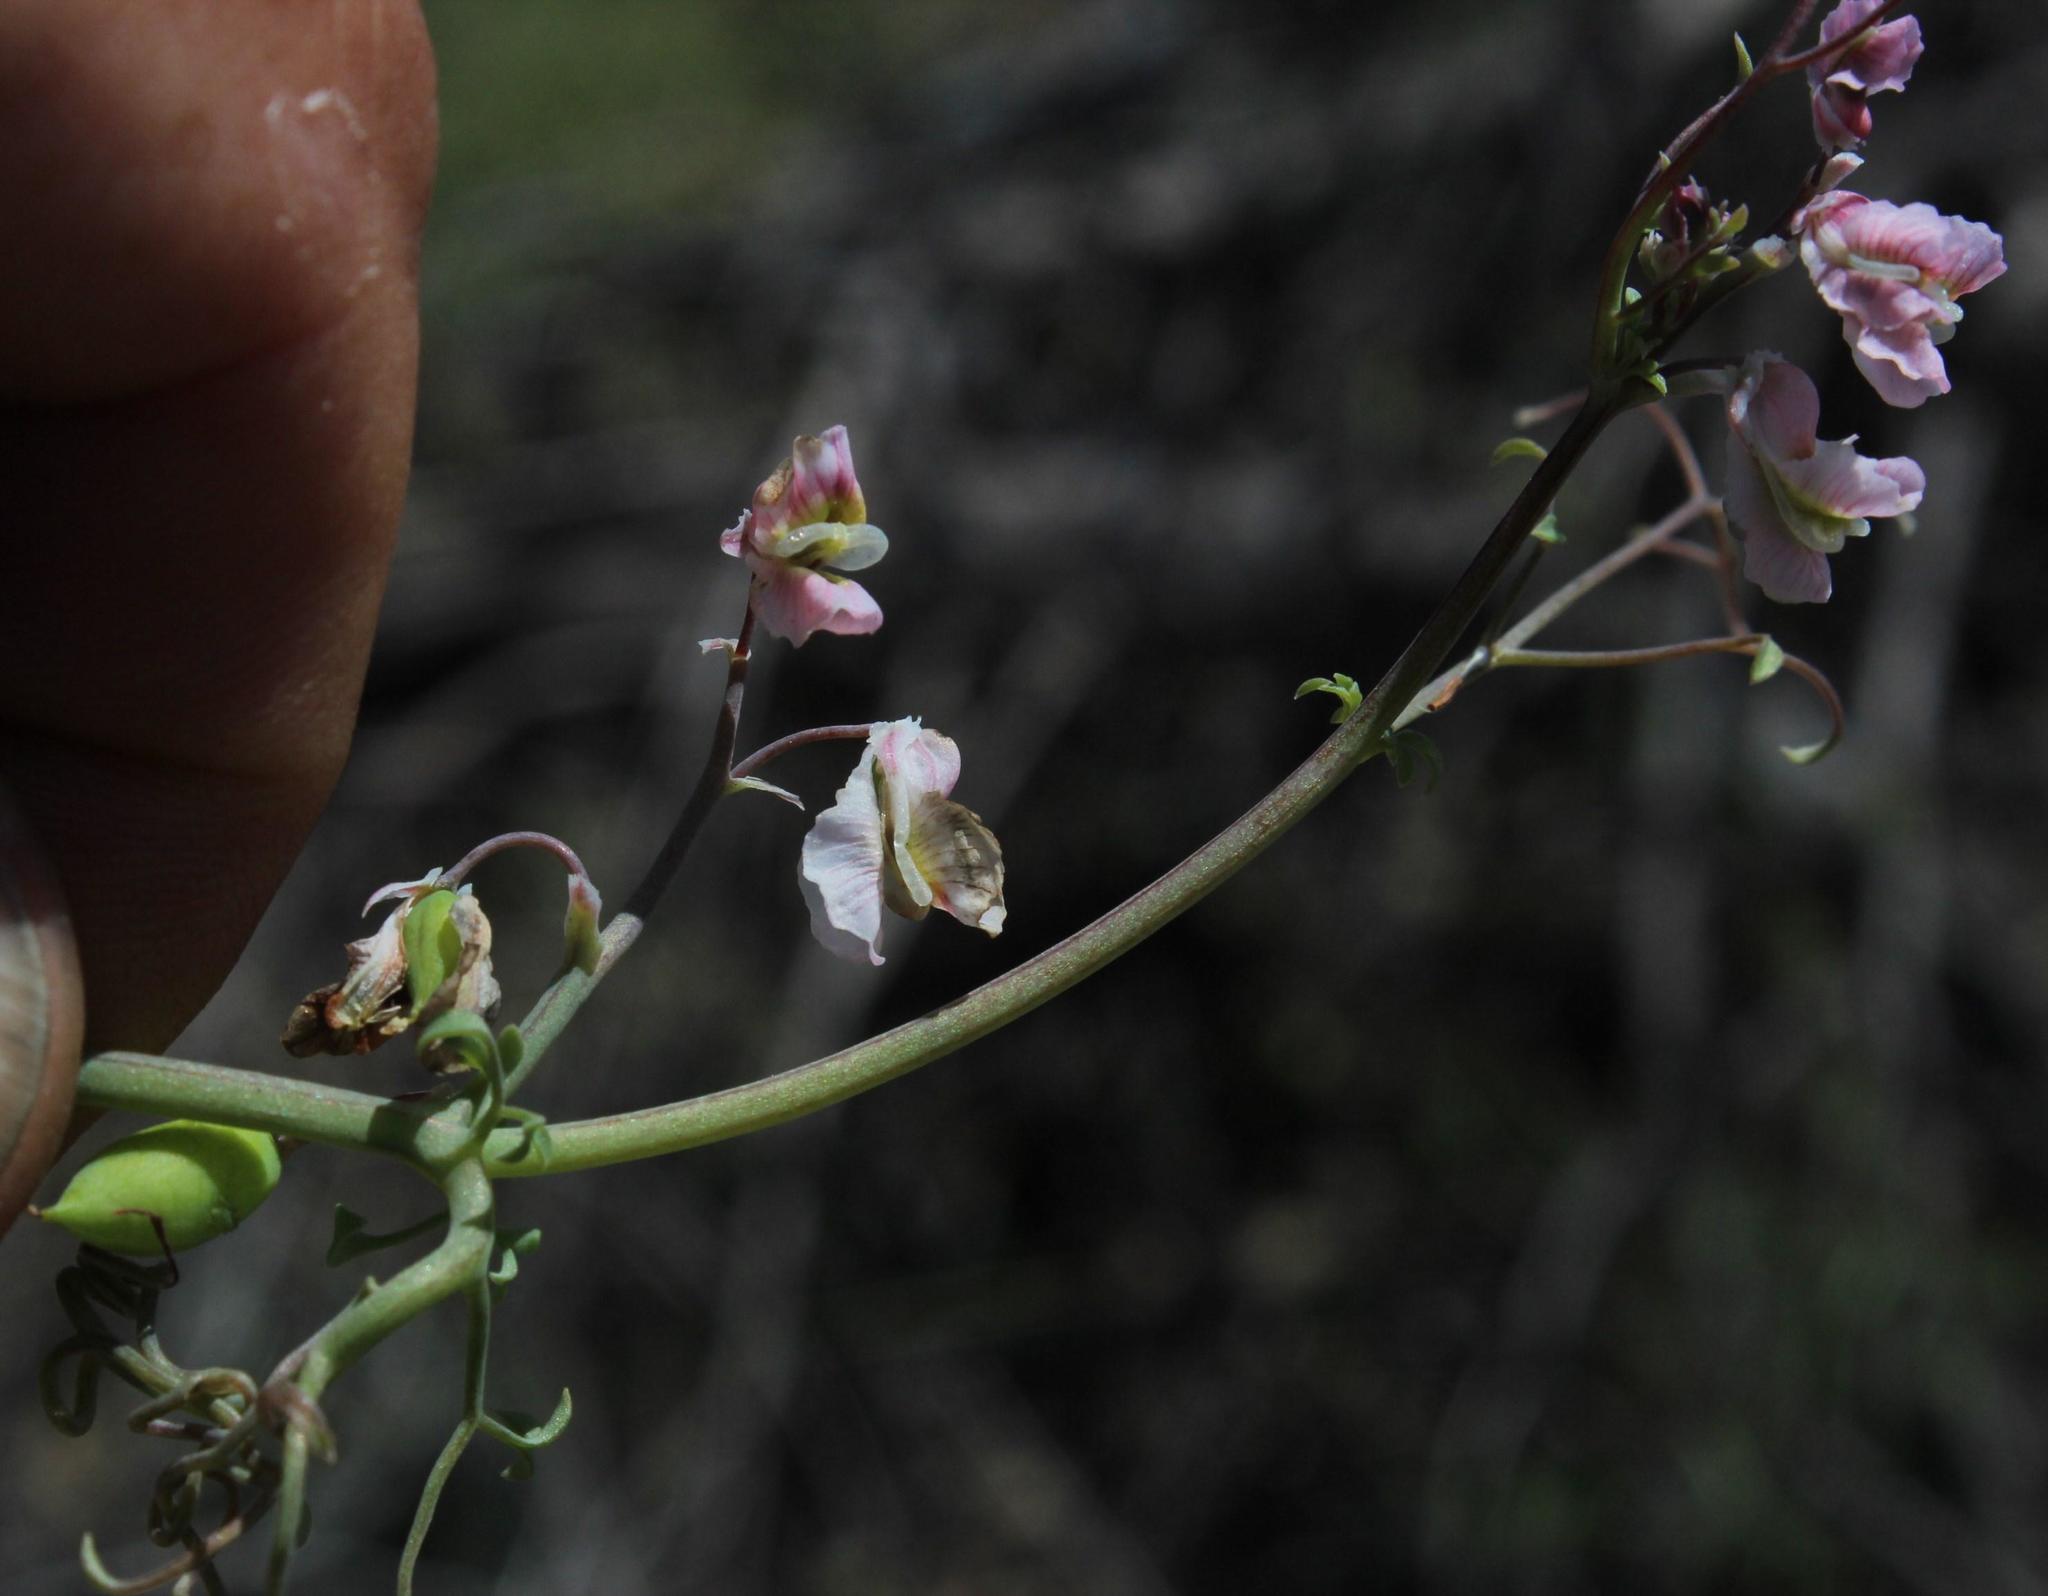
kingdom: Plantae
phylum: Tracheophyta
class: Magnoliopsida
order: Ranunculales
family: Papaveraceae
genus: Cysticapnos
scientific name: Cysticapnos vesicaria
